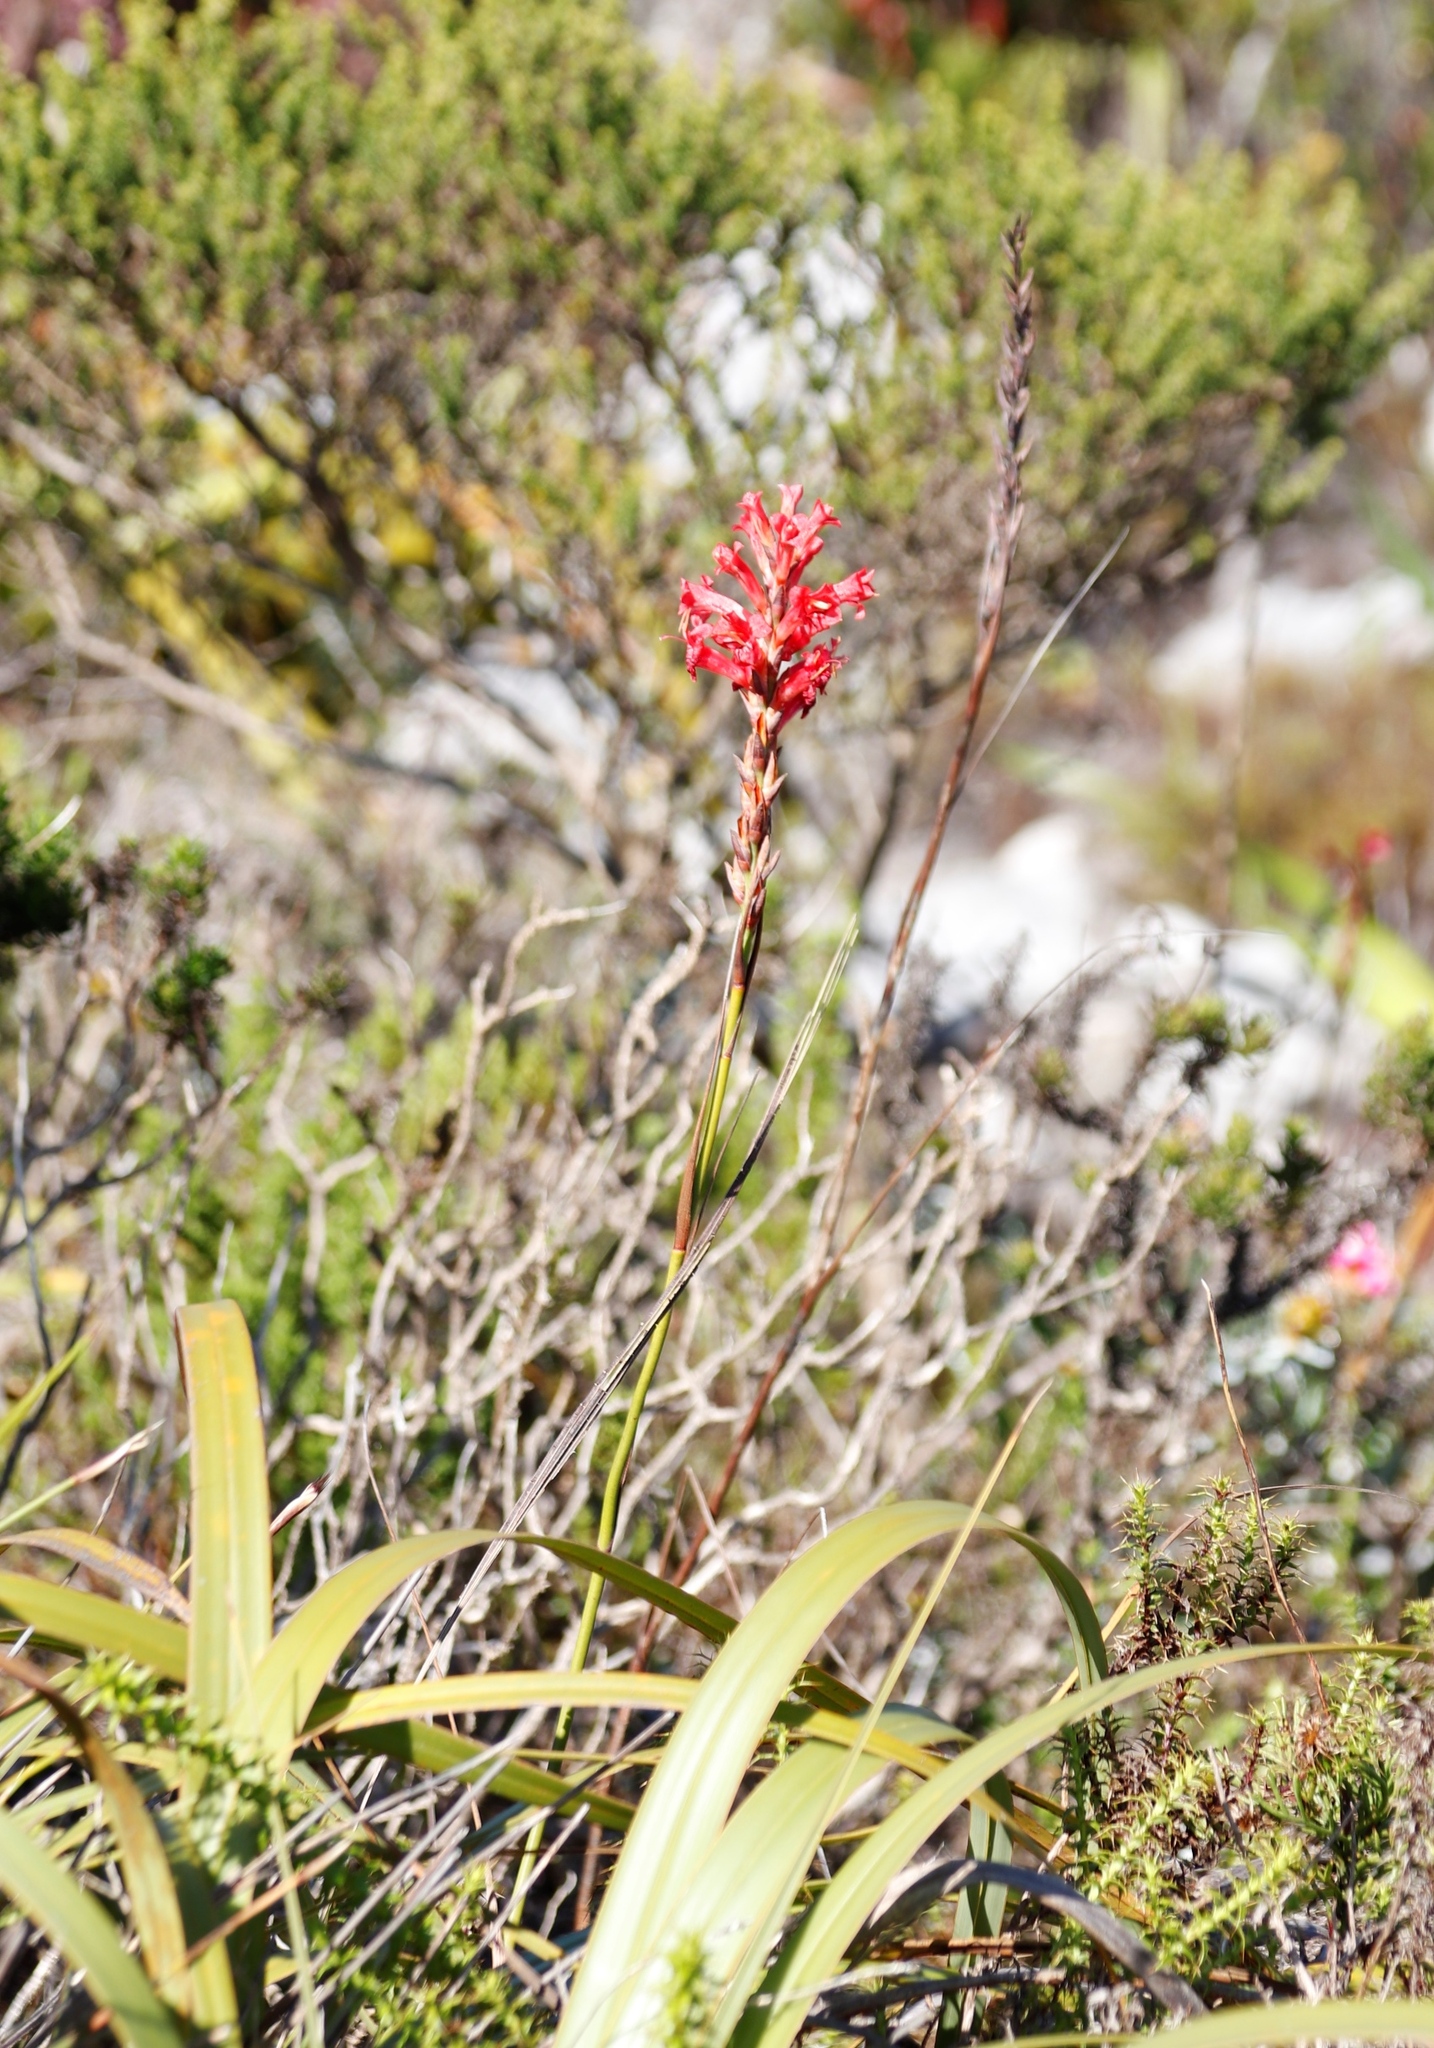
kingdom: Plantae
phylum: Tracheophyta
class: Liliopsida
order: Asparagales
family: Iridaceae
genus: Tritoniopsis
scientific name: Tritoniopsis triticea
